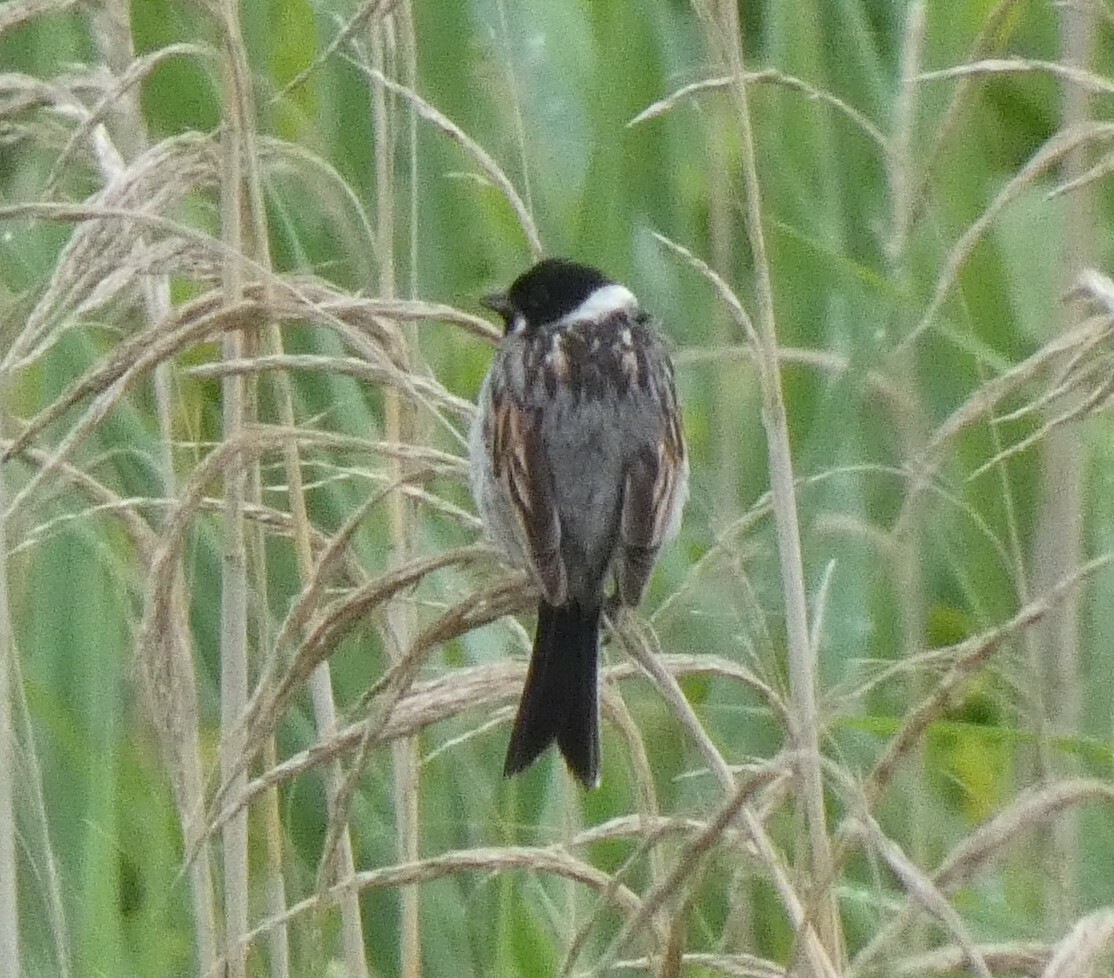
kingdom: Animalia
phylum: Chordata
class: Aves
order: Passeriformes
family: Emberizidae
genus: Emberiza
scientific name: Emberiza schoeniclus
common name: Reed bunting
